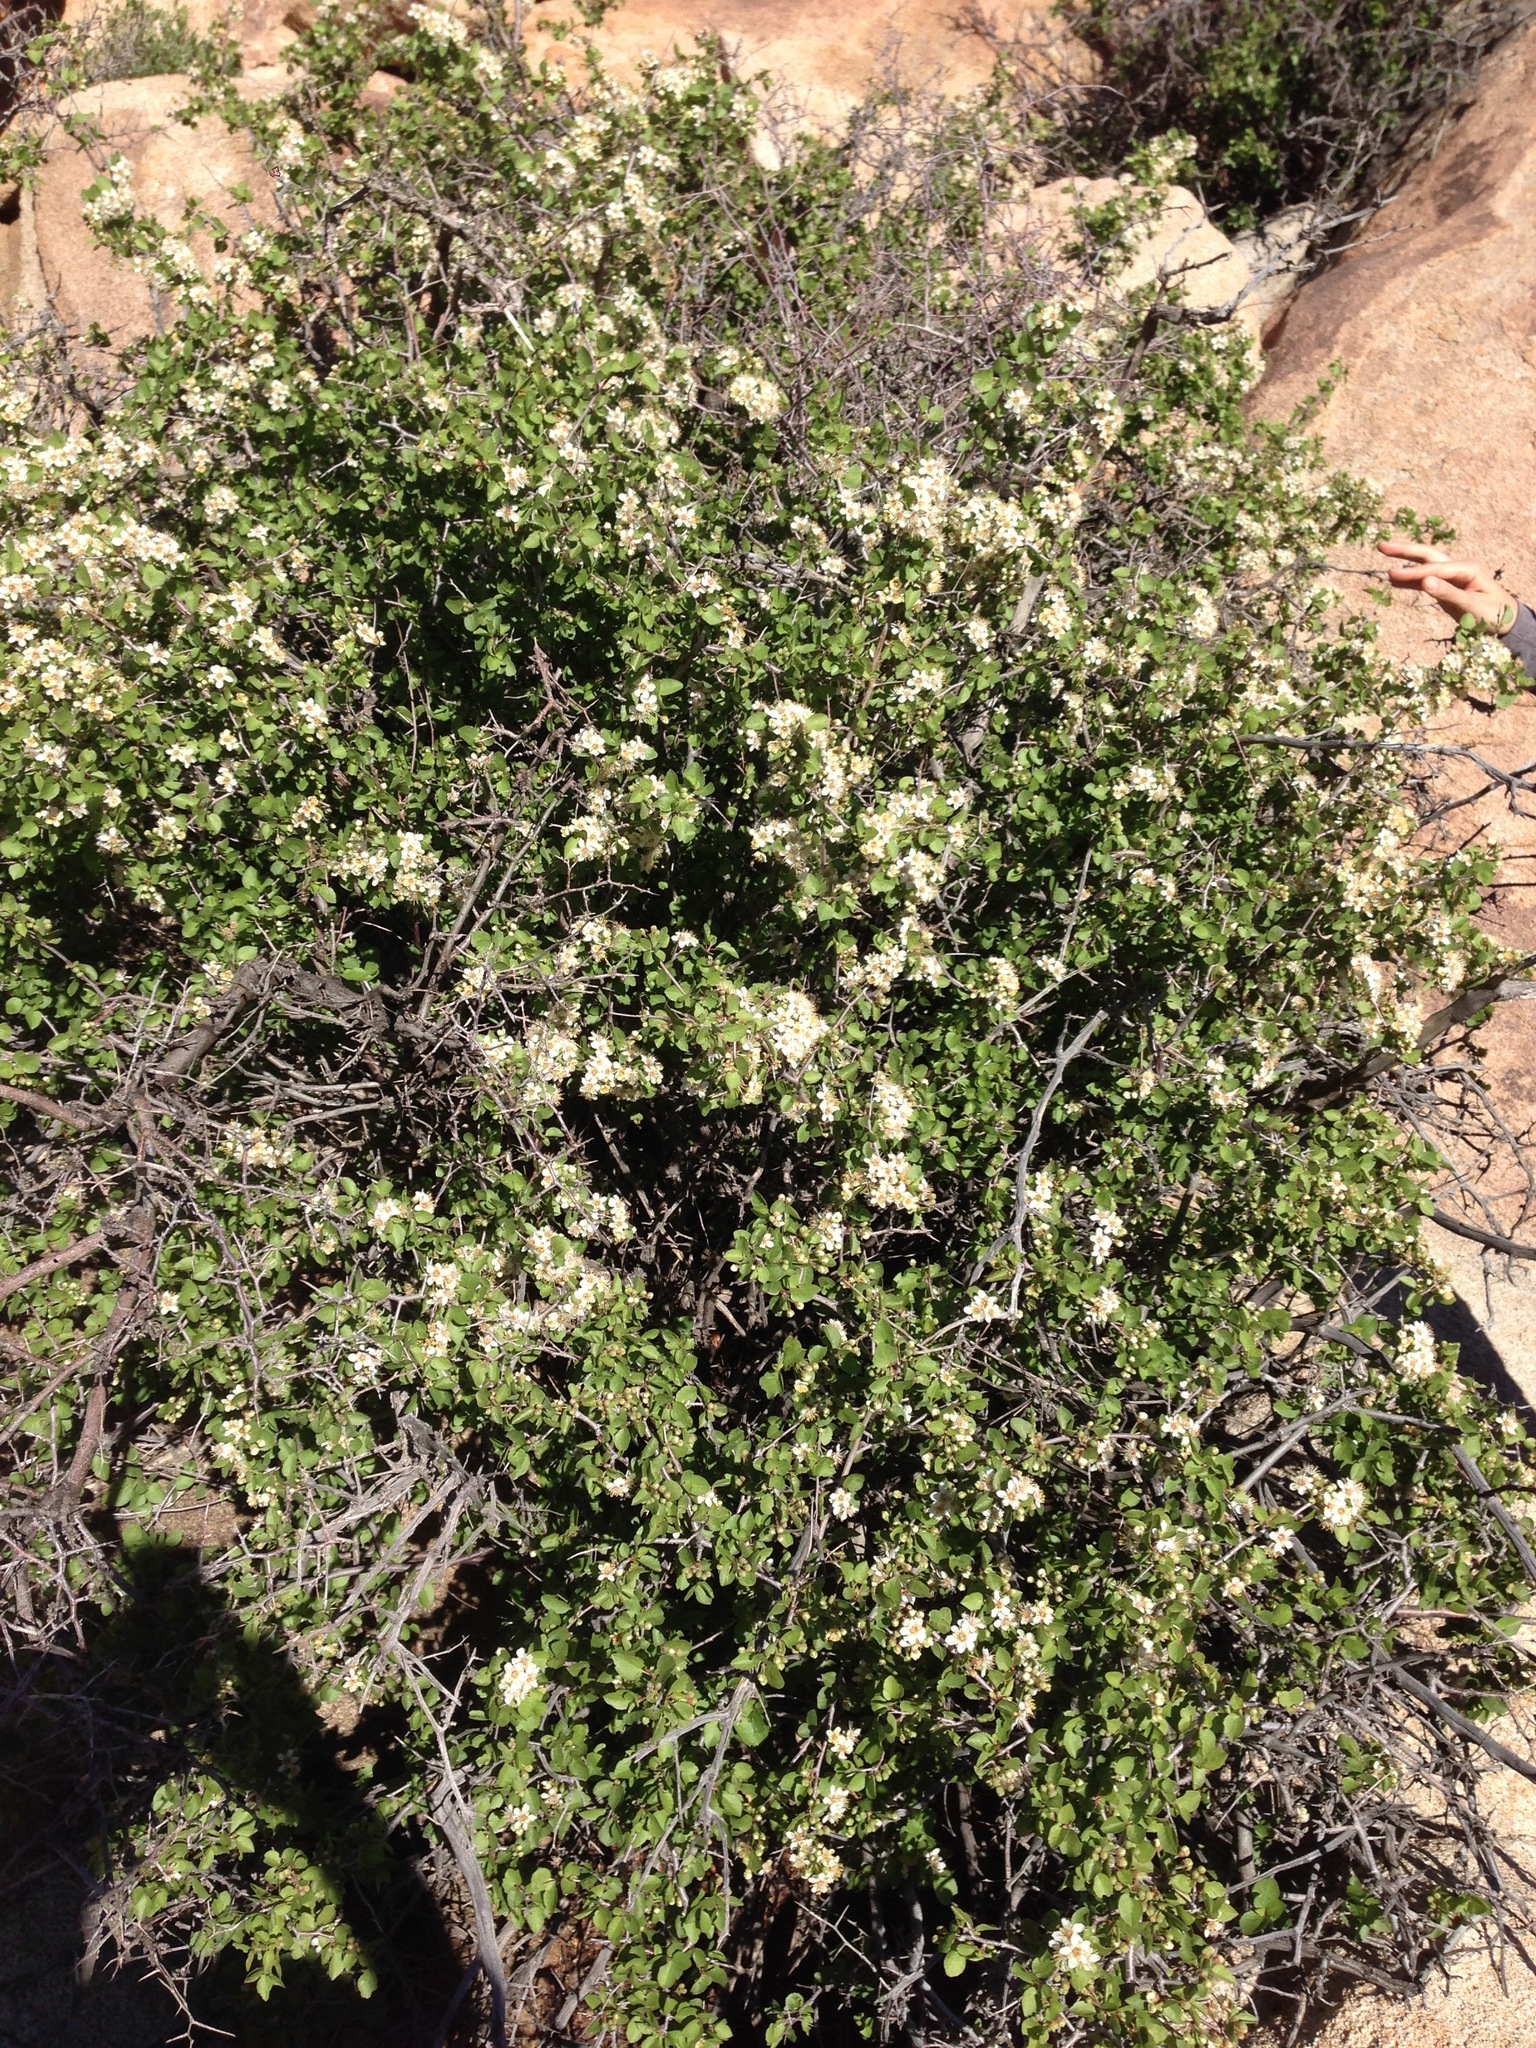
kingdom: Plantae
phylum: Tracheophyta
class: Magnoliopsida
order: Rosales
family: Rosaceae
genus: Prunus
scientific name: Prunus fremontii
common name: Desert apricot
